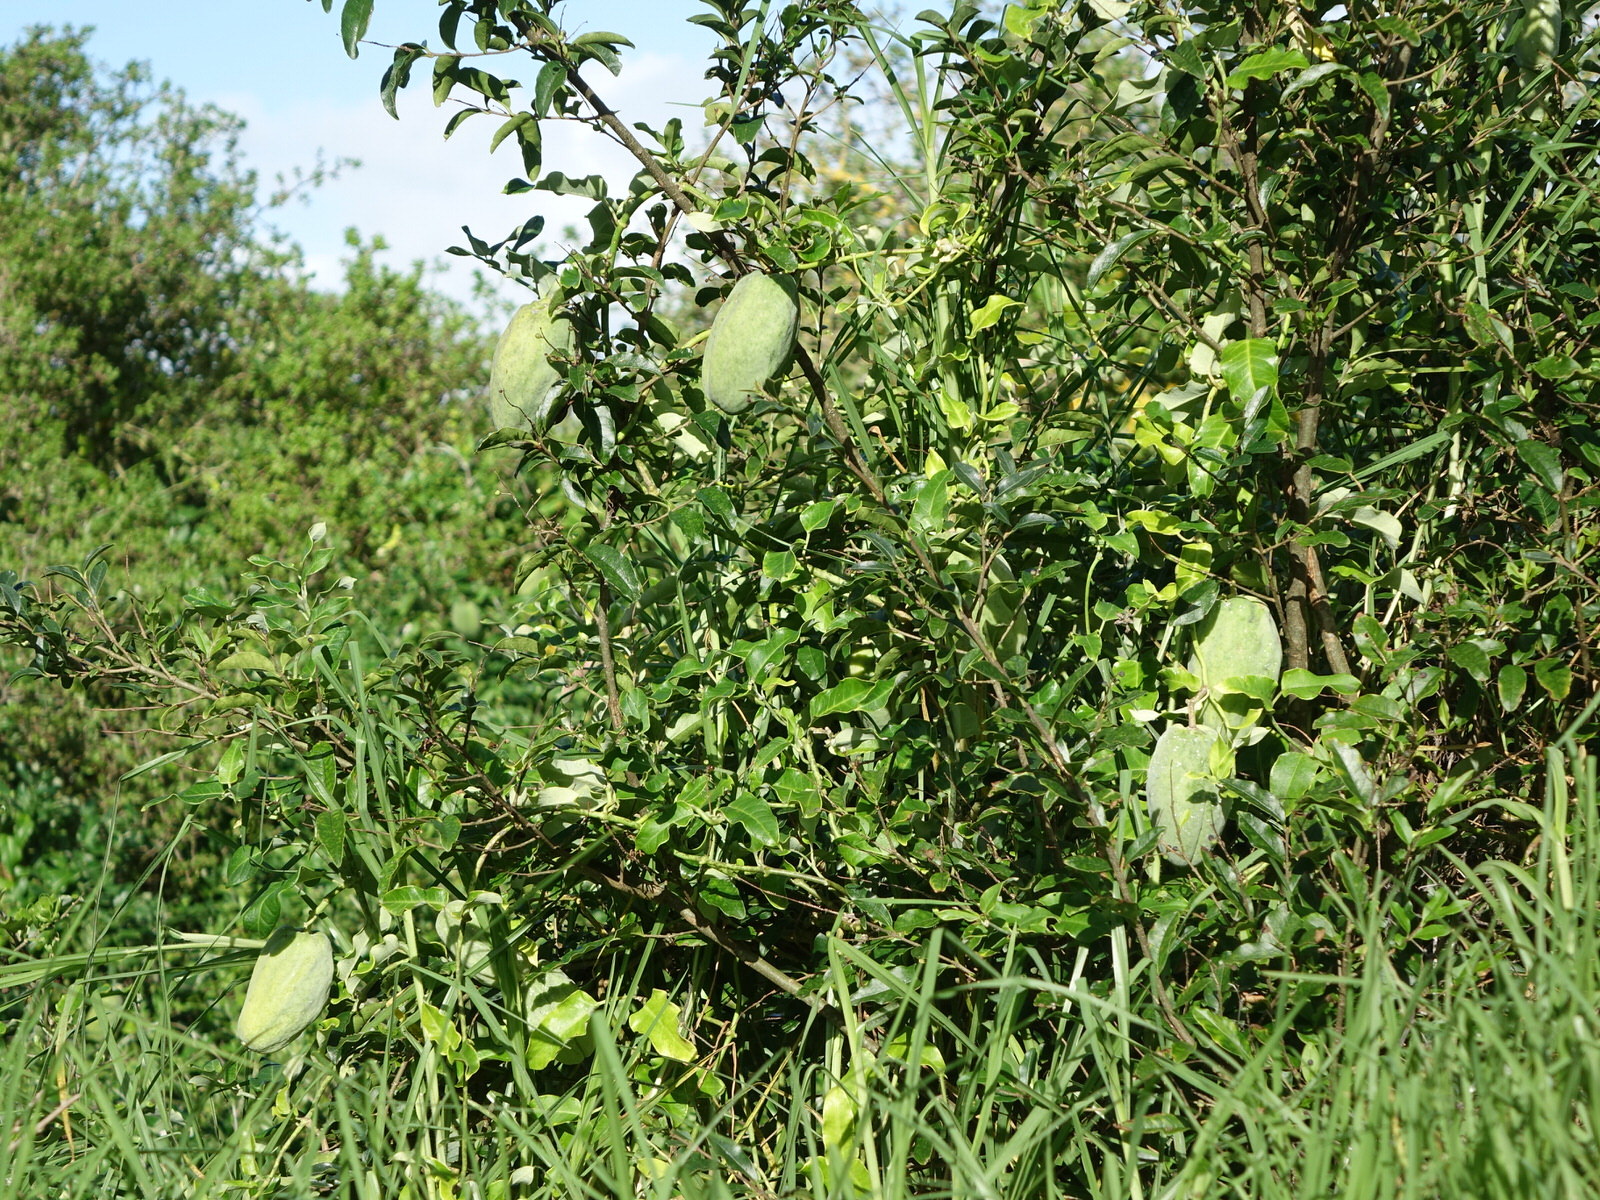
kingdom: Plantae
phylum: Tracheophyta
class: Magnoliopsida
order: Gentianales
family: Apocynaceae
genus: Araujia
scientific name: Araujia sericifera
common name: White bladderflower
